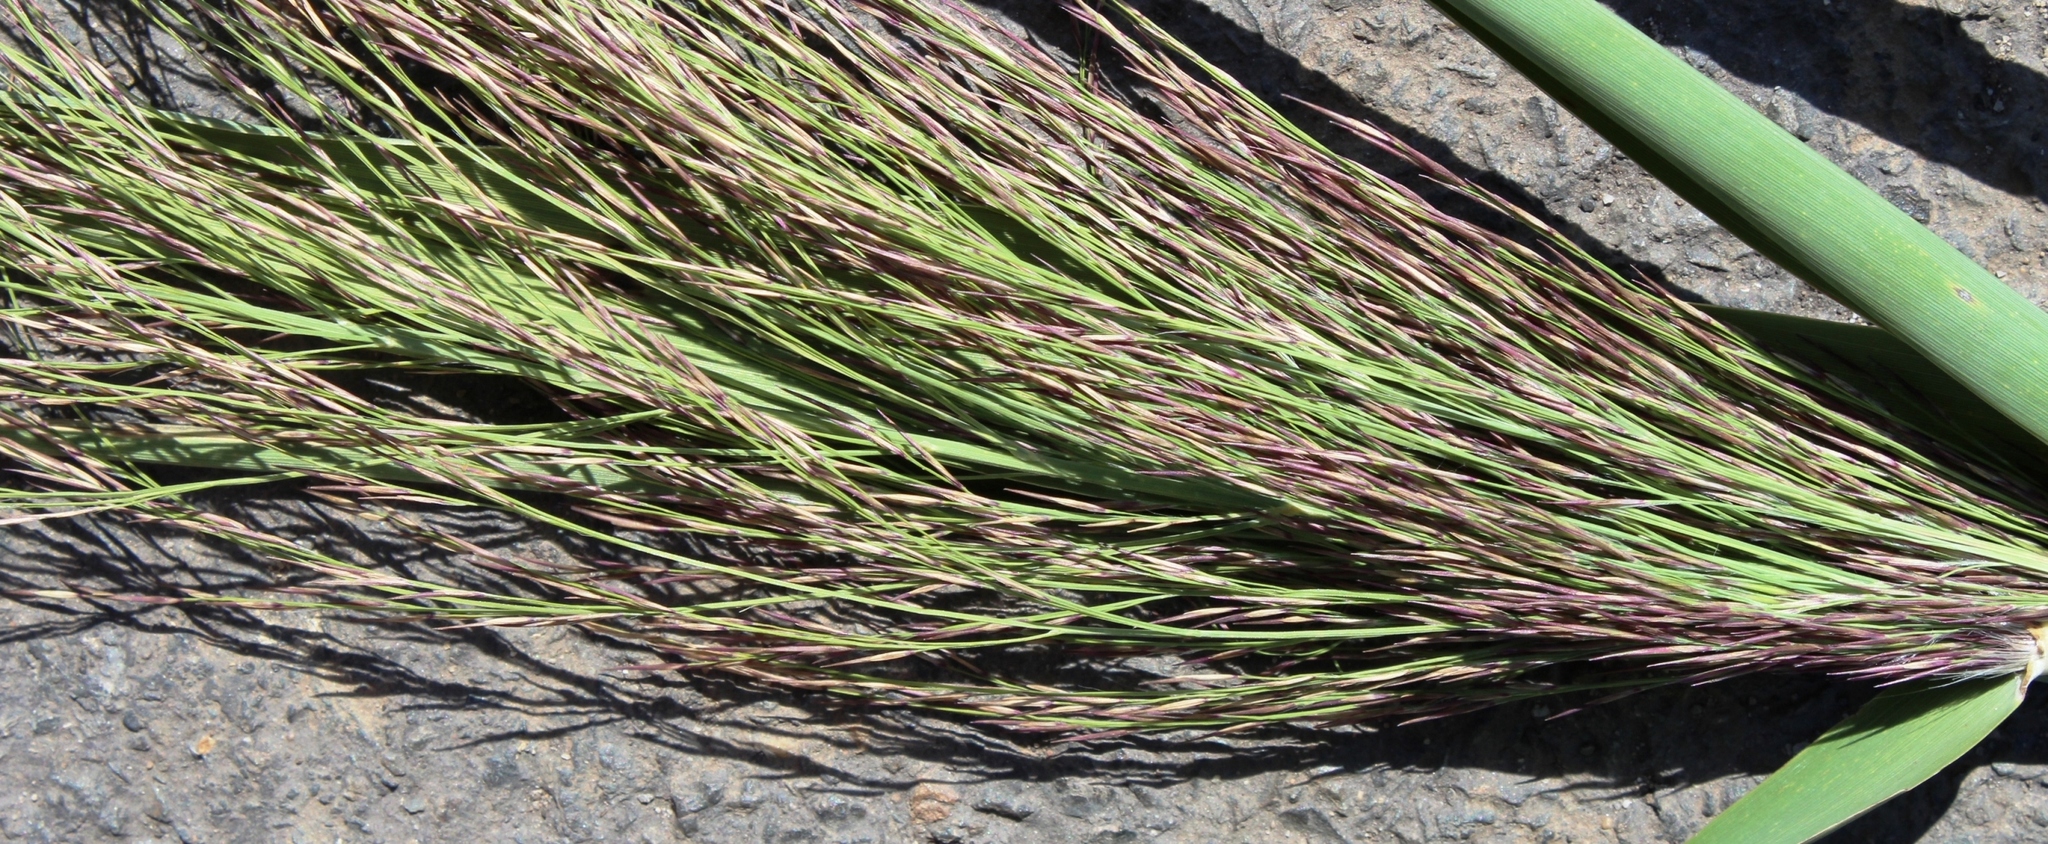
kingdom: Plantae
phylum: Tracheophyta
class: Liliopsida
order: Poales
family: Poaceae
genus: Phragmites
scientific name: Phragmites australis
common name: Common reed
